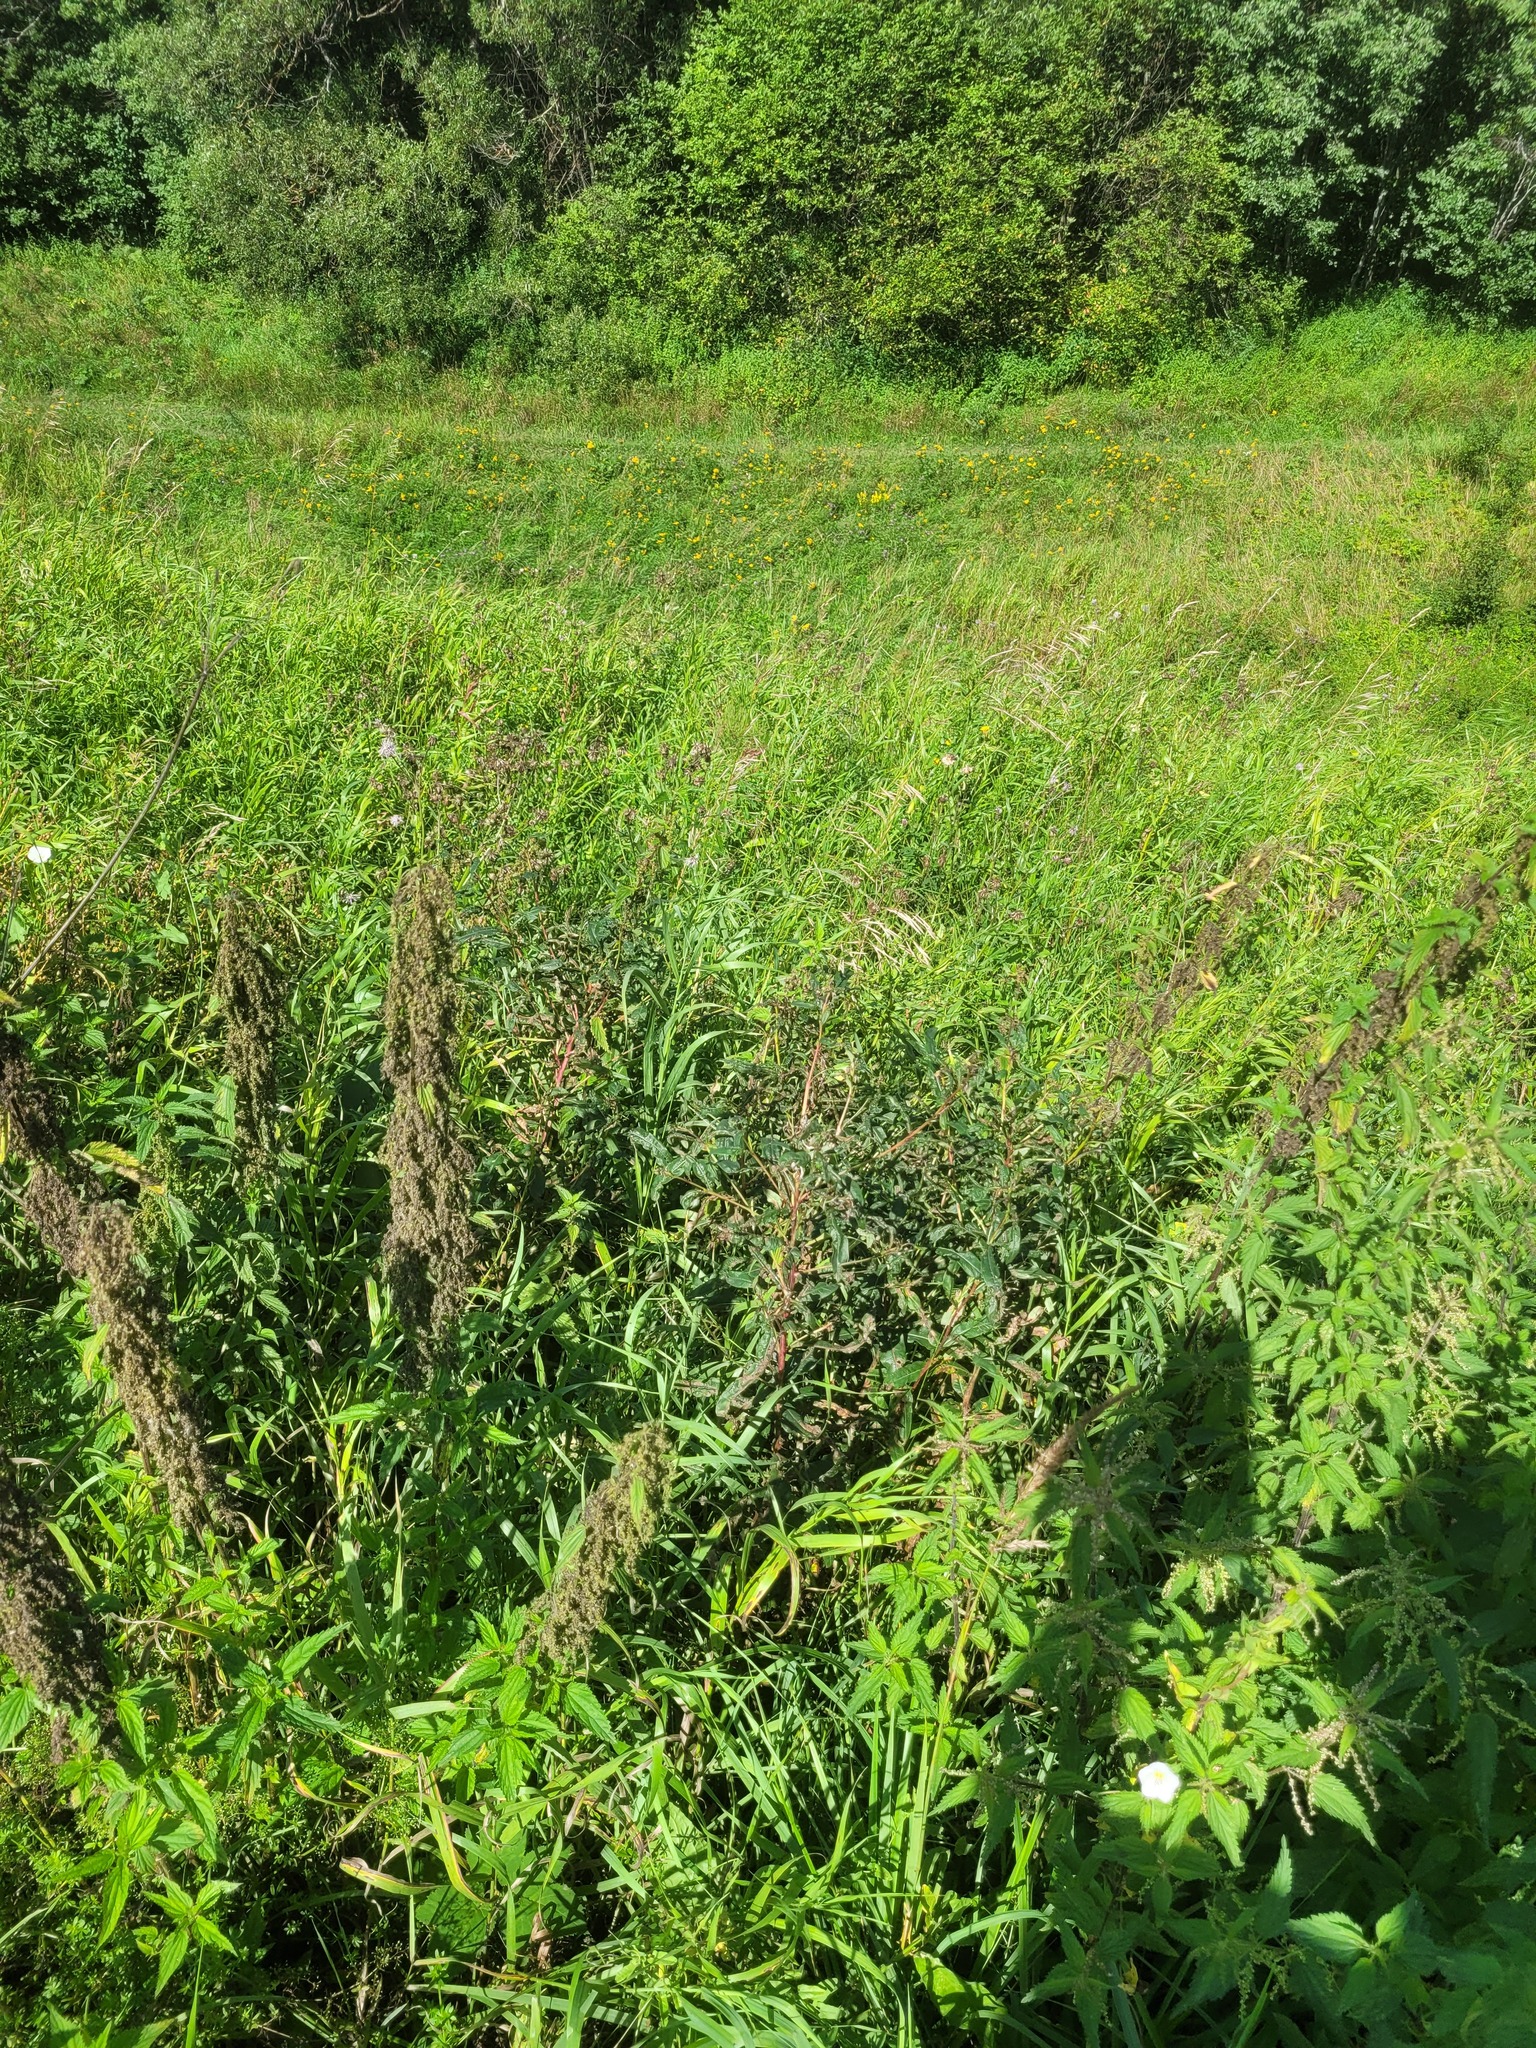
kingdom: Plantae
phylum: Tracheophyta
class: Magnoliopsida
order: Myrtales
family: Onagraceae
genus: Chamaenerion
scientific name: Chamaenerion angustifolium
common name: Fireweed
